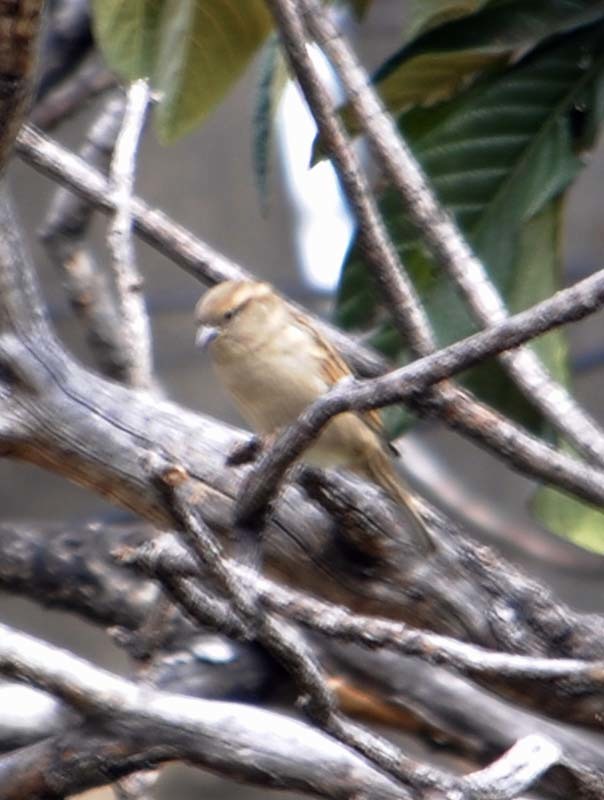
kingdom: Animalia
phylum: Chordata
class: Aves
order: Passeriformes
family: Passeridae
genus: Passer
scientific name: Passer domesticus
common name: House sparrow
